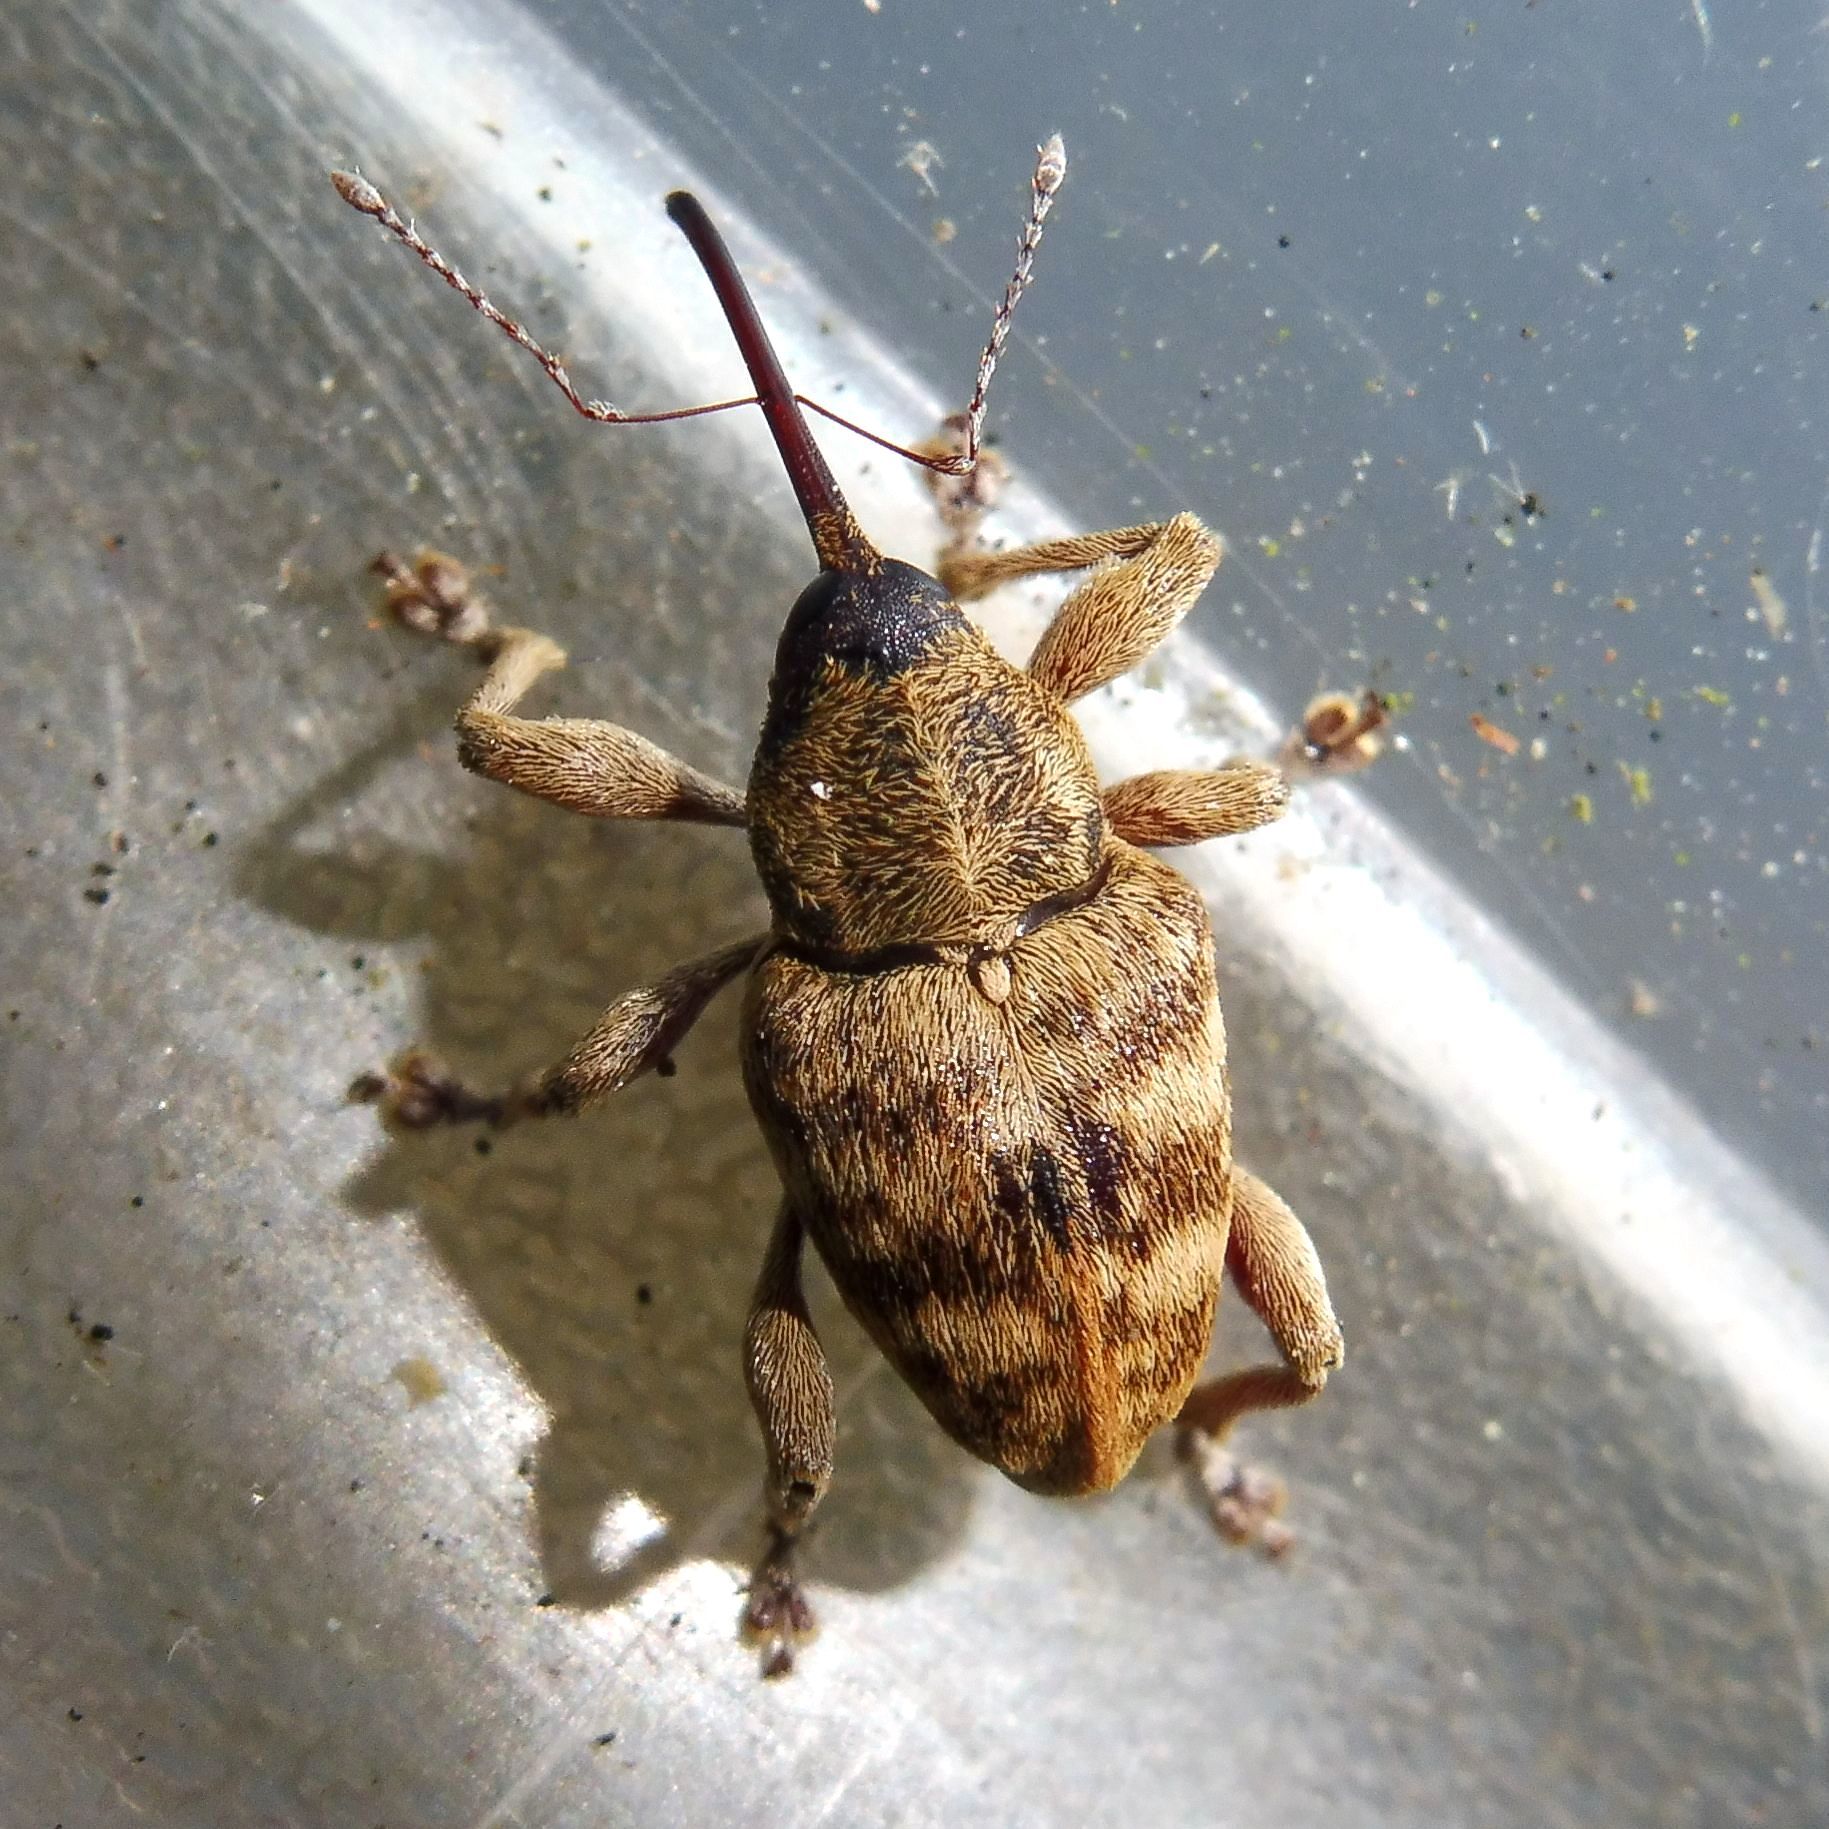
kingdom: Animalia
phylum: Arthropoda
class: Insecta
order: Coleoptera
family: Curculionidae
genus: Curculio
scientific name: Curculio venosus
